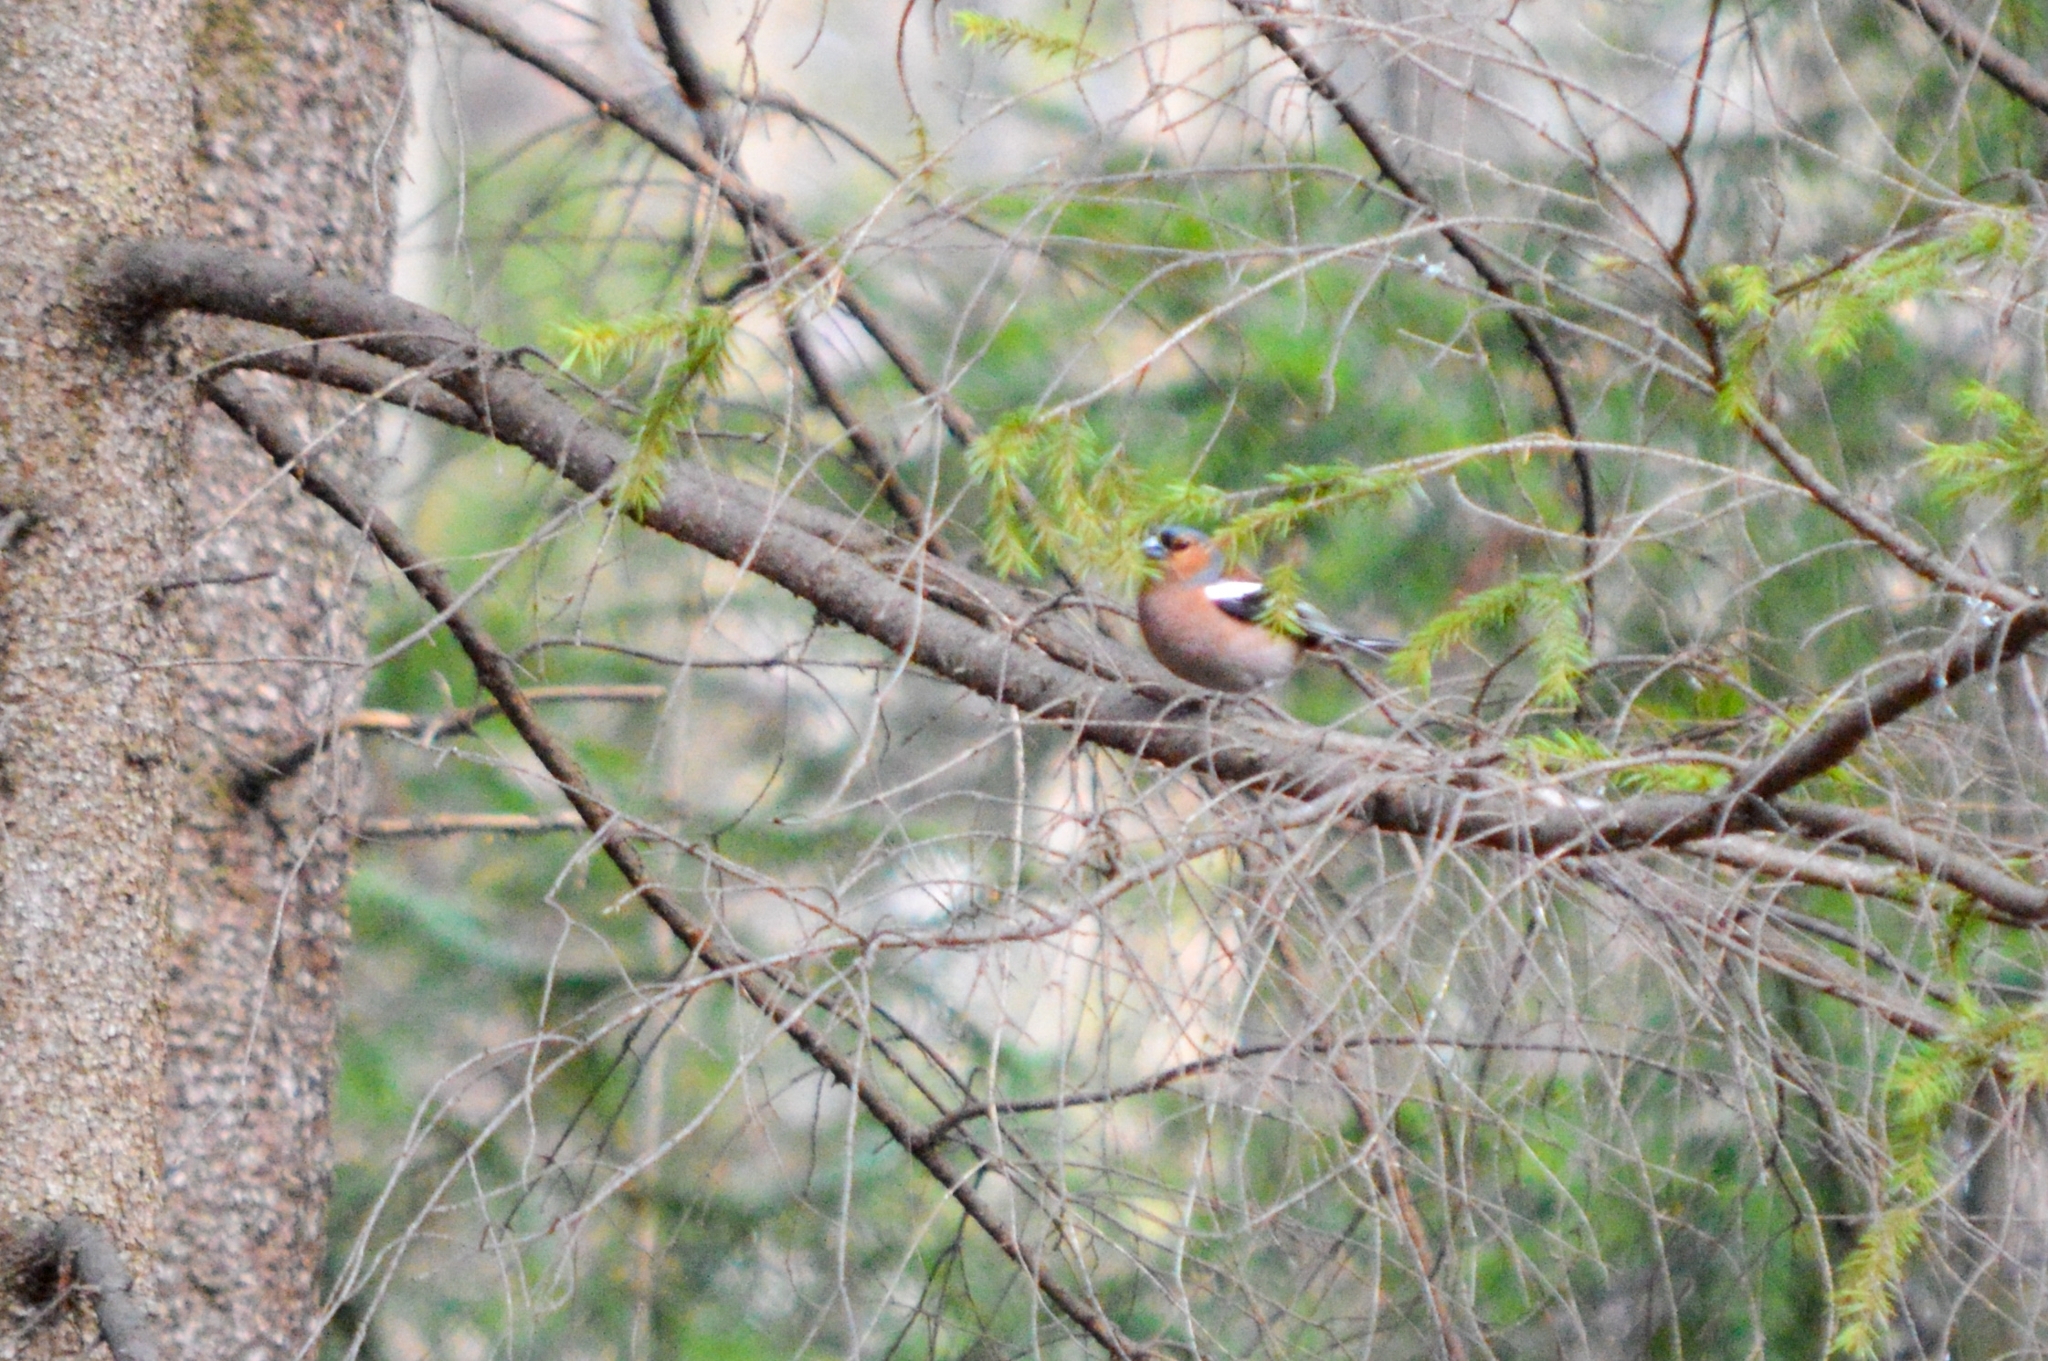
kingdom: Animalia
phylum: Chordata
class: Aves
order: Passeriformes
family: Fringillidae
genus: Fringilla
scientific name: Fringilla coelebs
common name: Common chaffinch
